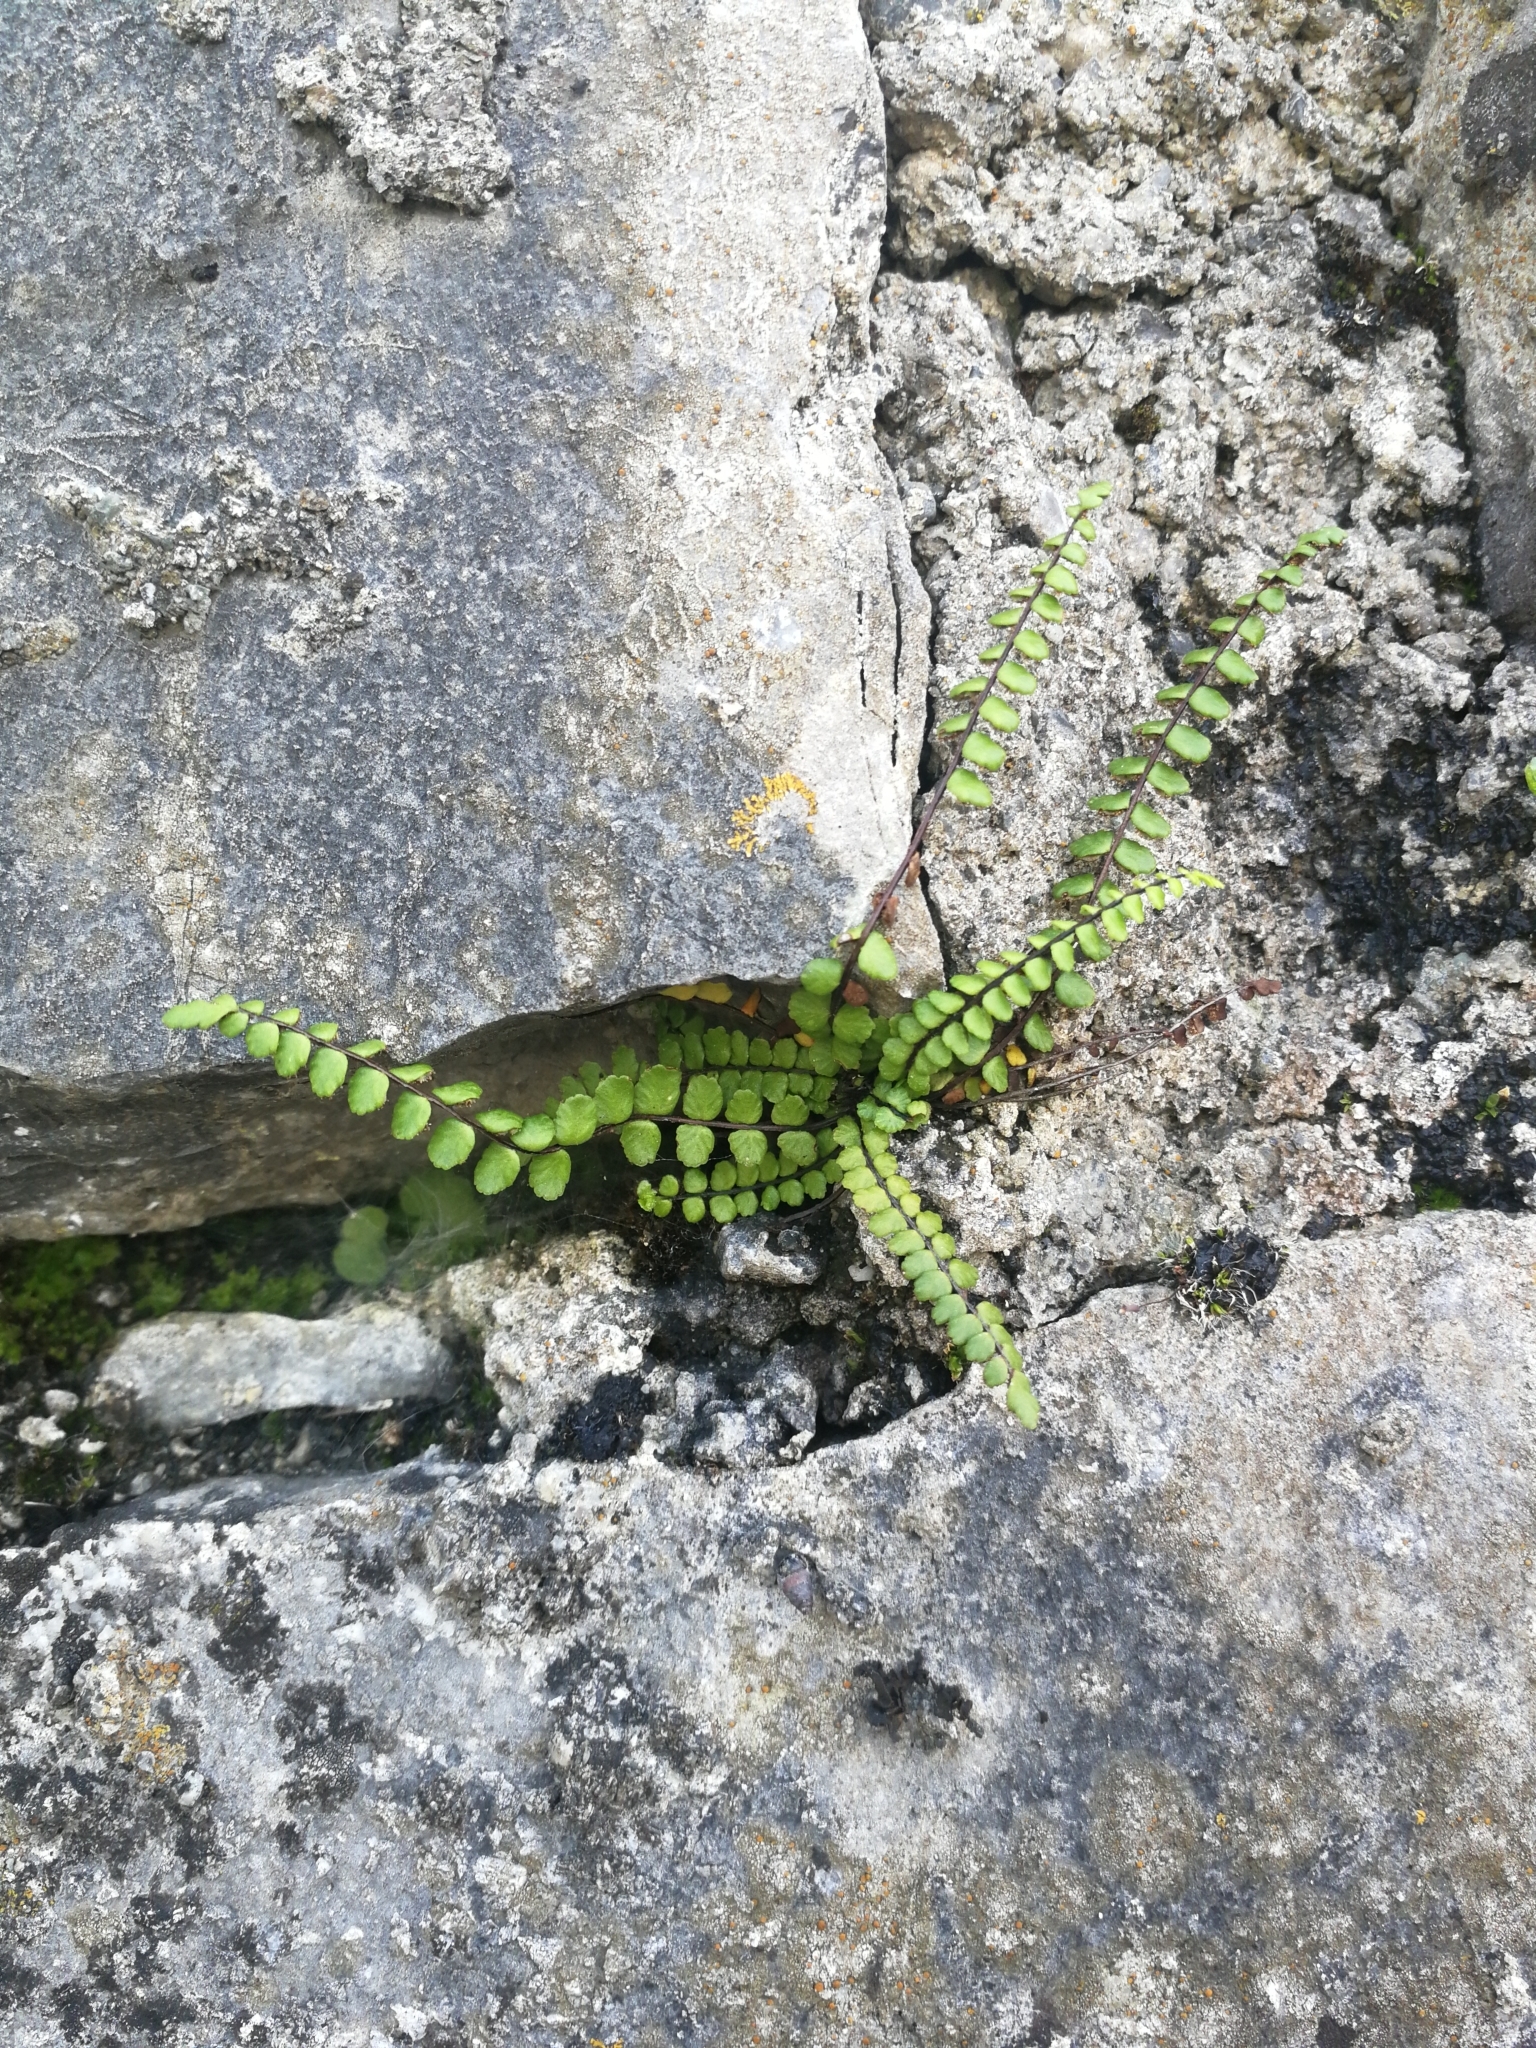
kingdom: Plantae
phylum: Tracheophyta
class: Polypodiopsida
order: Polypodiales
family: Aspleniaceae
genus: Asplenium
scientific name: Asplenium trichomanes
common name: Maidenhair spleenwort
